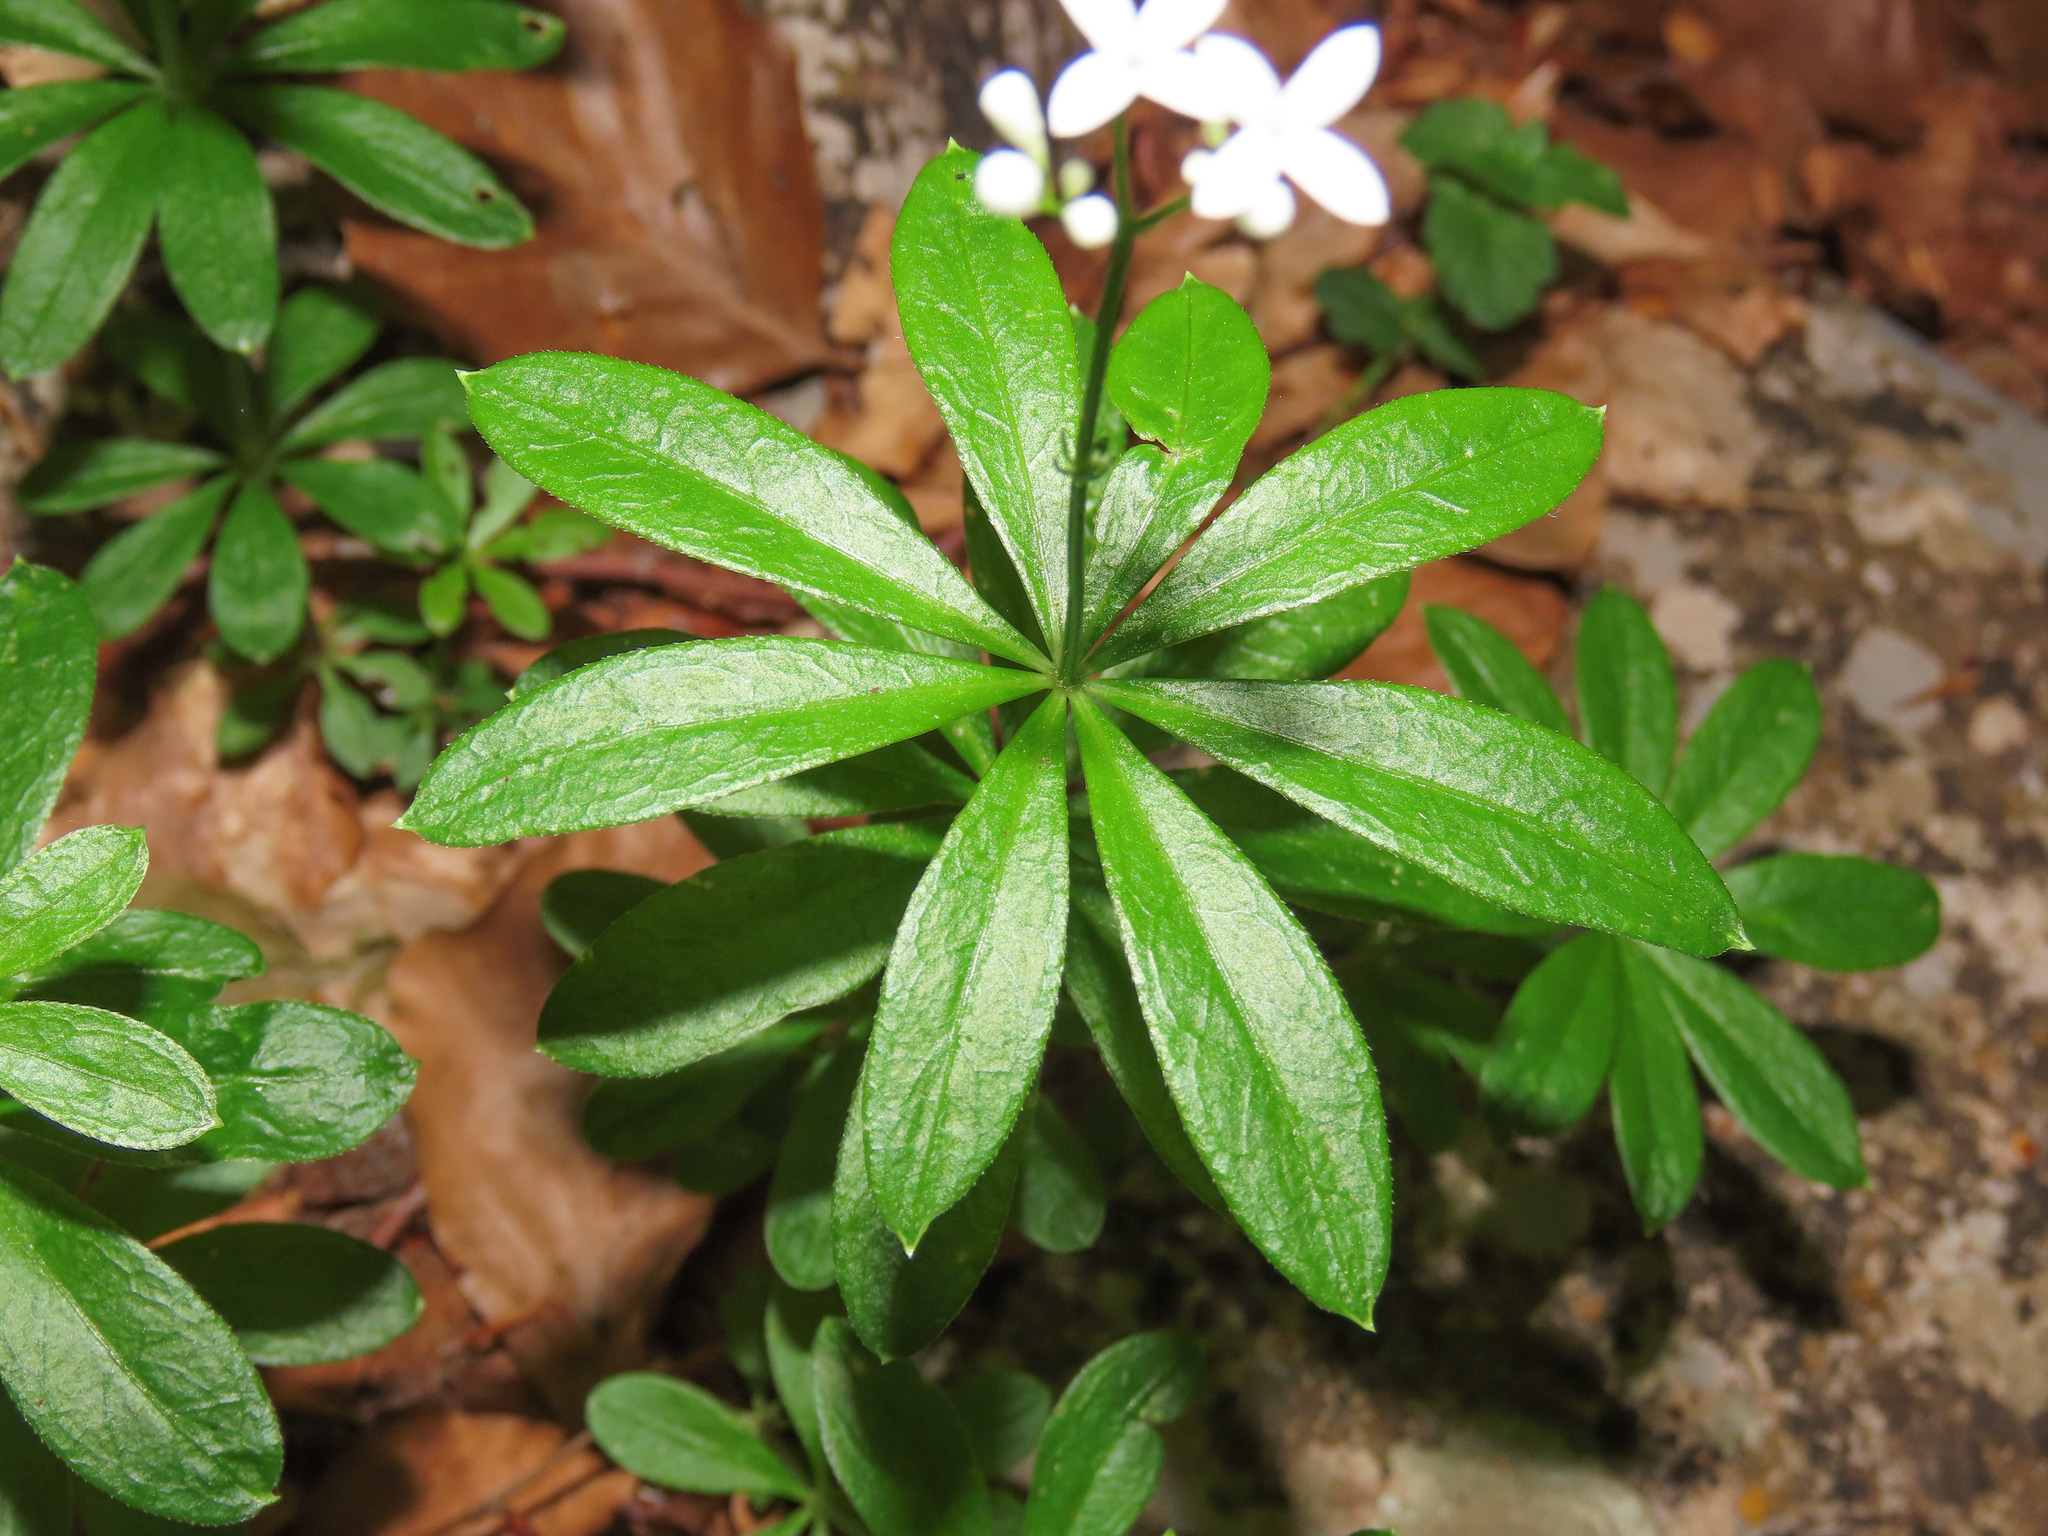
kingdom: Plantae
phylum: Tracheophyta
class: Magnoliopsida
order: Gentianales
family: Rubiaceae
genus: Galium
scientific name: Galium odoratum
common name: Sweet woodruff
